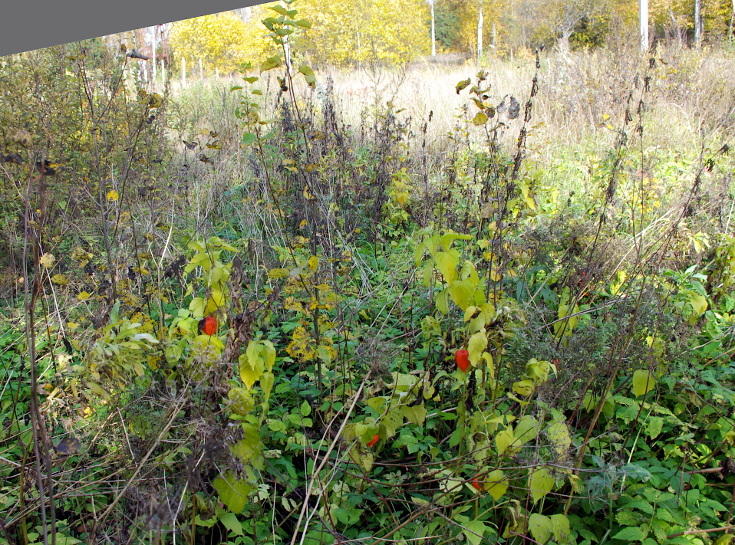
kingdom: Plantae
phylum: Tracheophyta
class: Magnoliopsida
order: Solanales
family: Solanaceae
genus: Alkekengi
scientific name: Alkekengi officinarum
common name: Japanese-lantern
